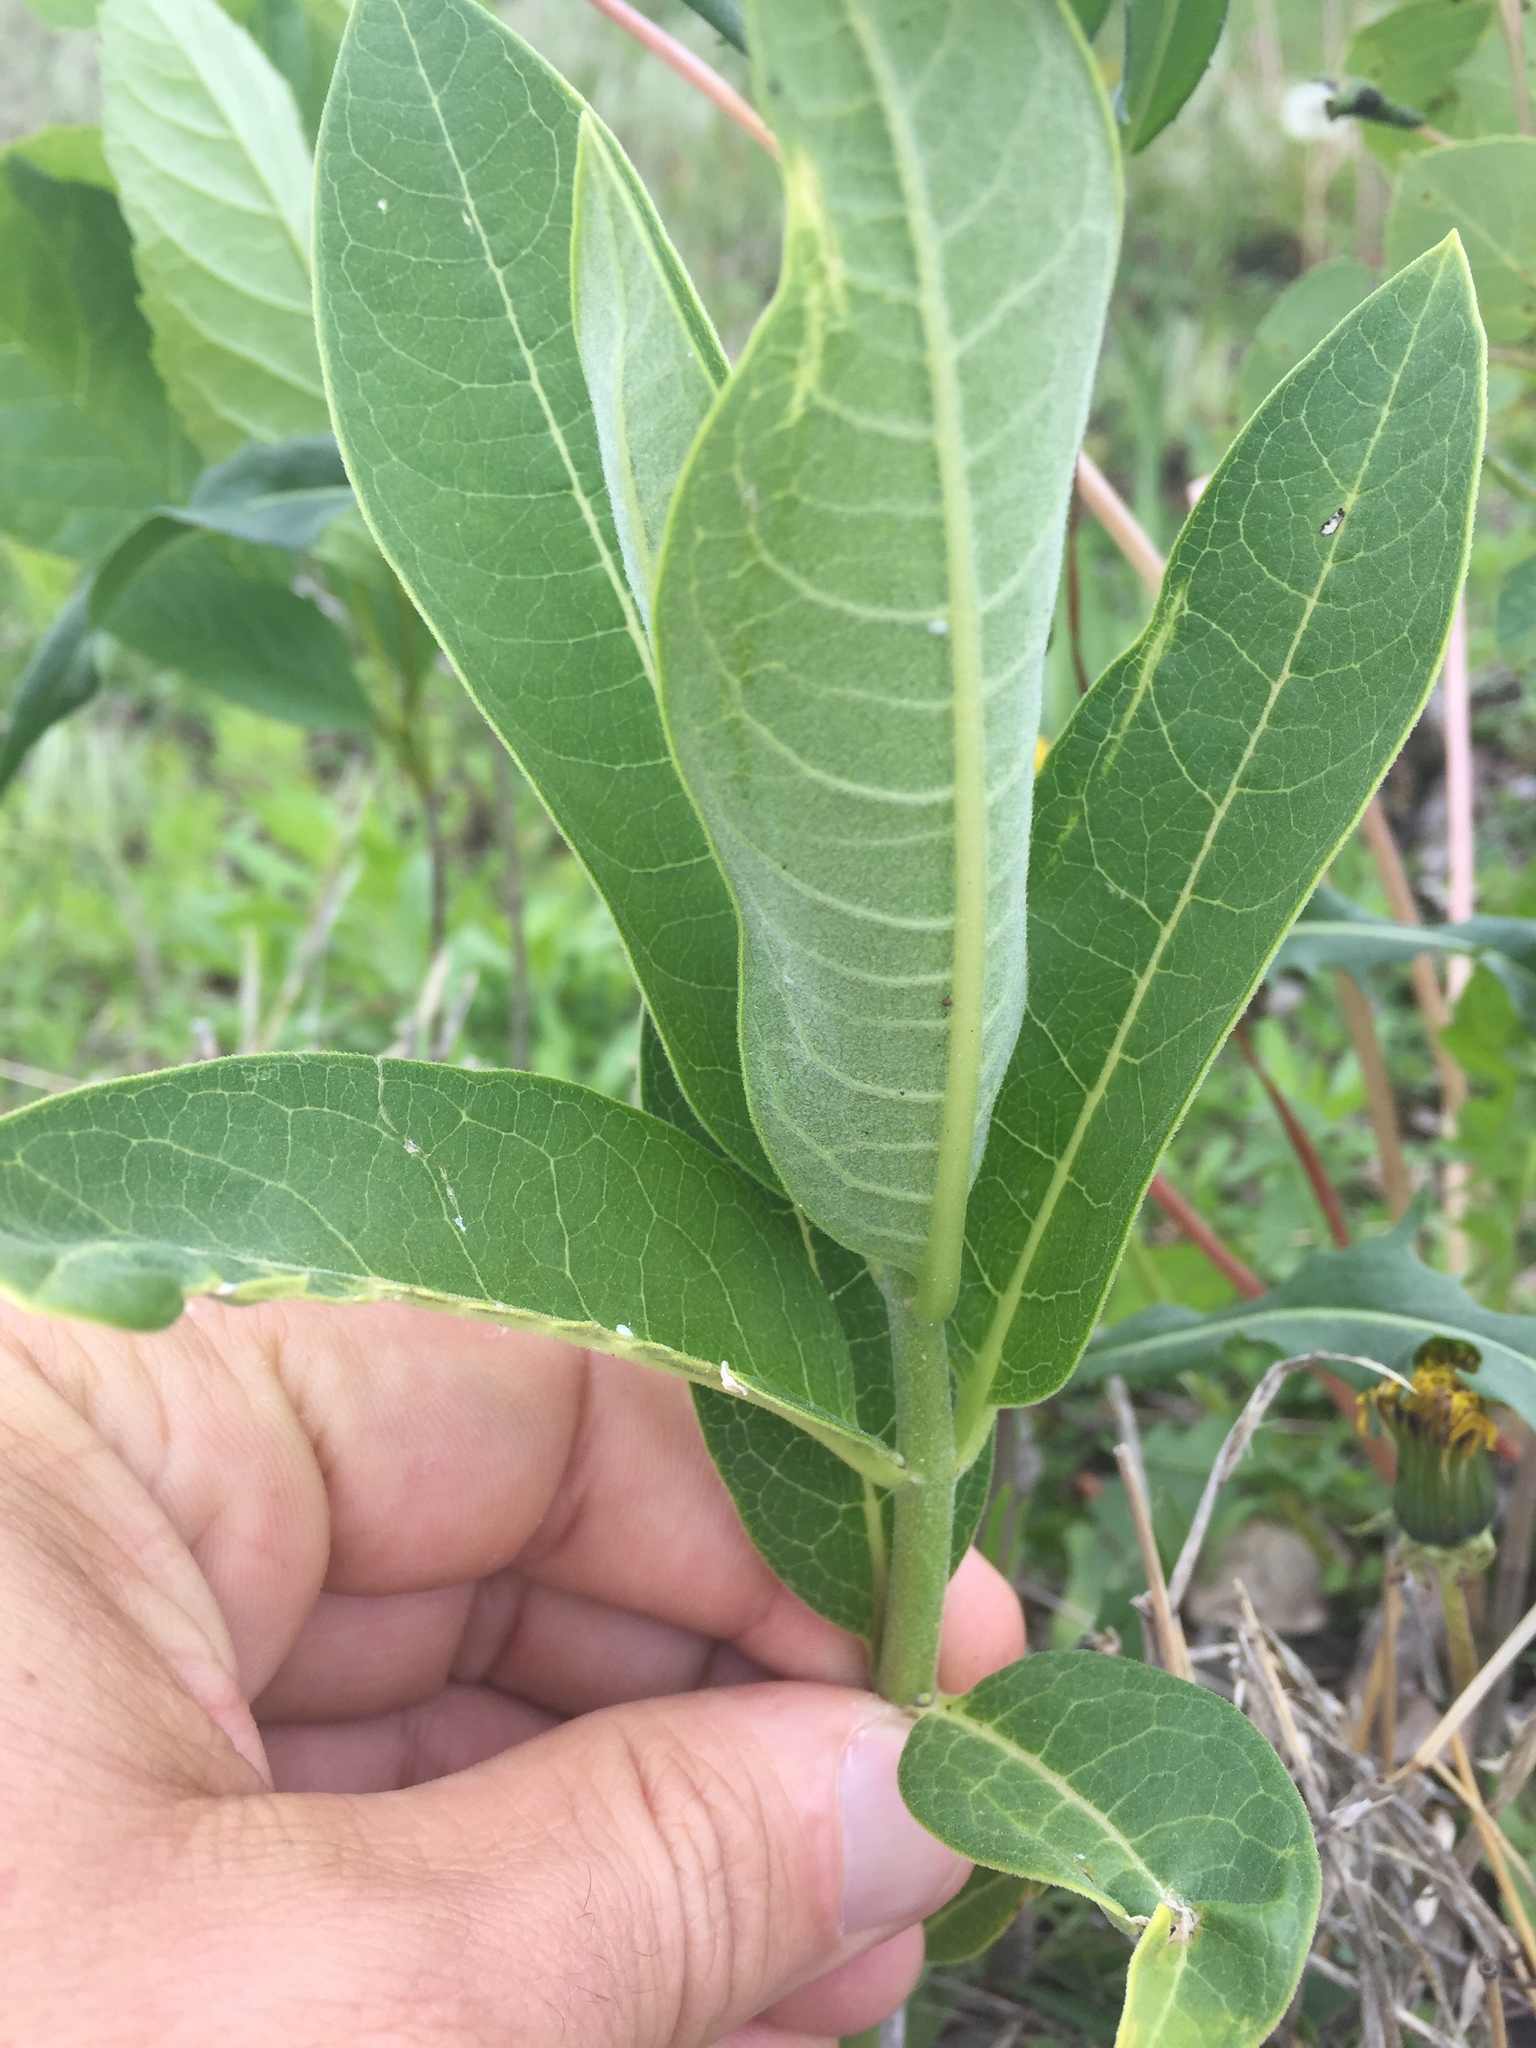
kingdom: Plantae
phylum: Tracheophyta
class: Magnoliopsida
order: Gentianales
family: Apocynaceae
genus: Asclepias
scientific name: Asclepias syriaca
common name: Common milkweed
